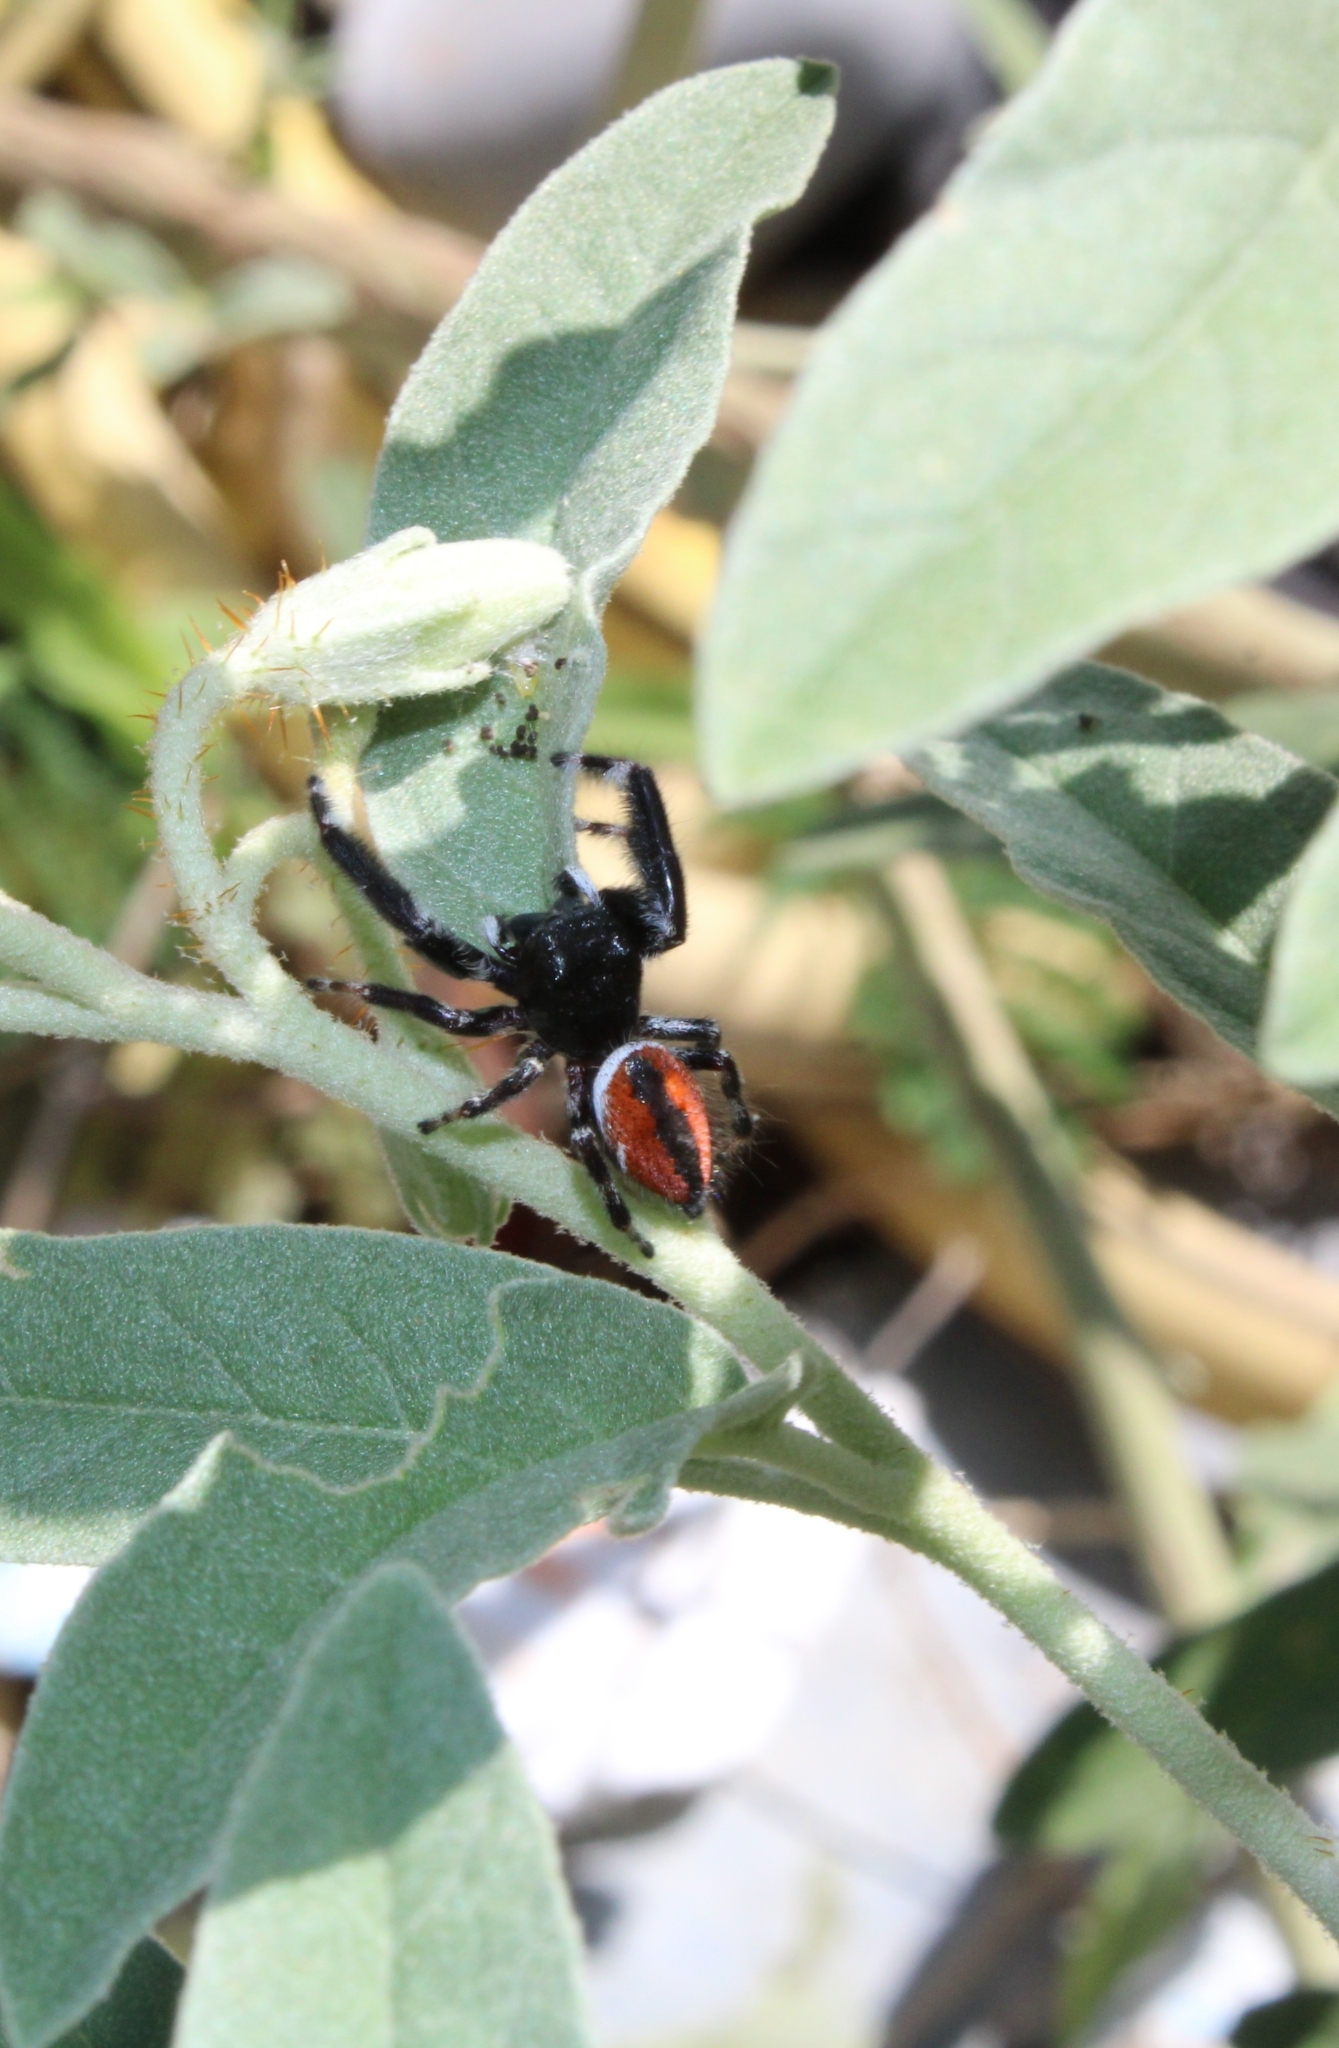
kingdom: Animalia
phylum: Arthropoda
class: Arachnida
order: Araneae
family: Salticidae
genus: Phidippus
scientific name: Phidippus clarus
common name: Brilliant jumping spider
